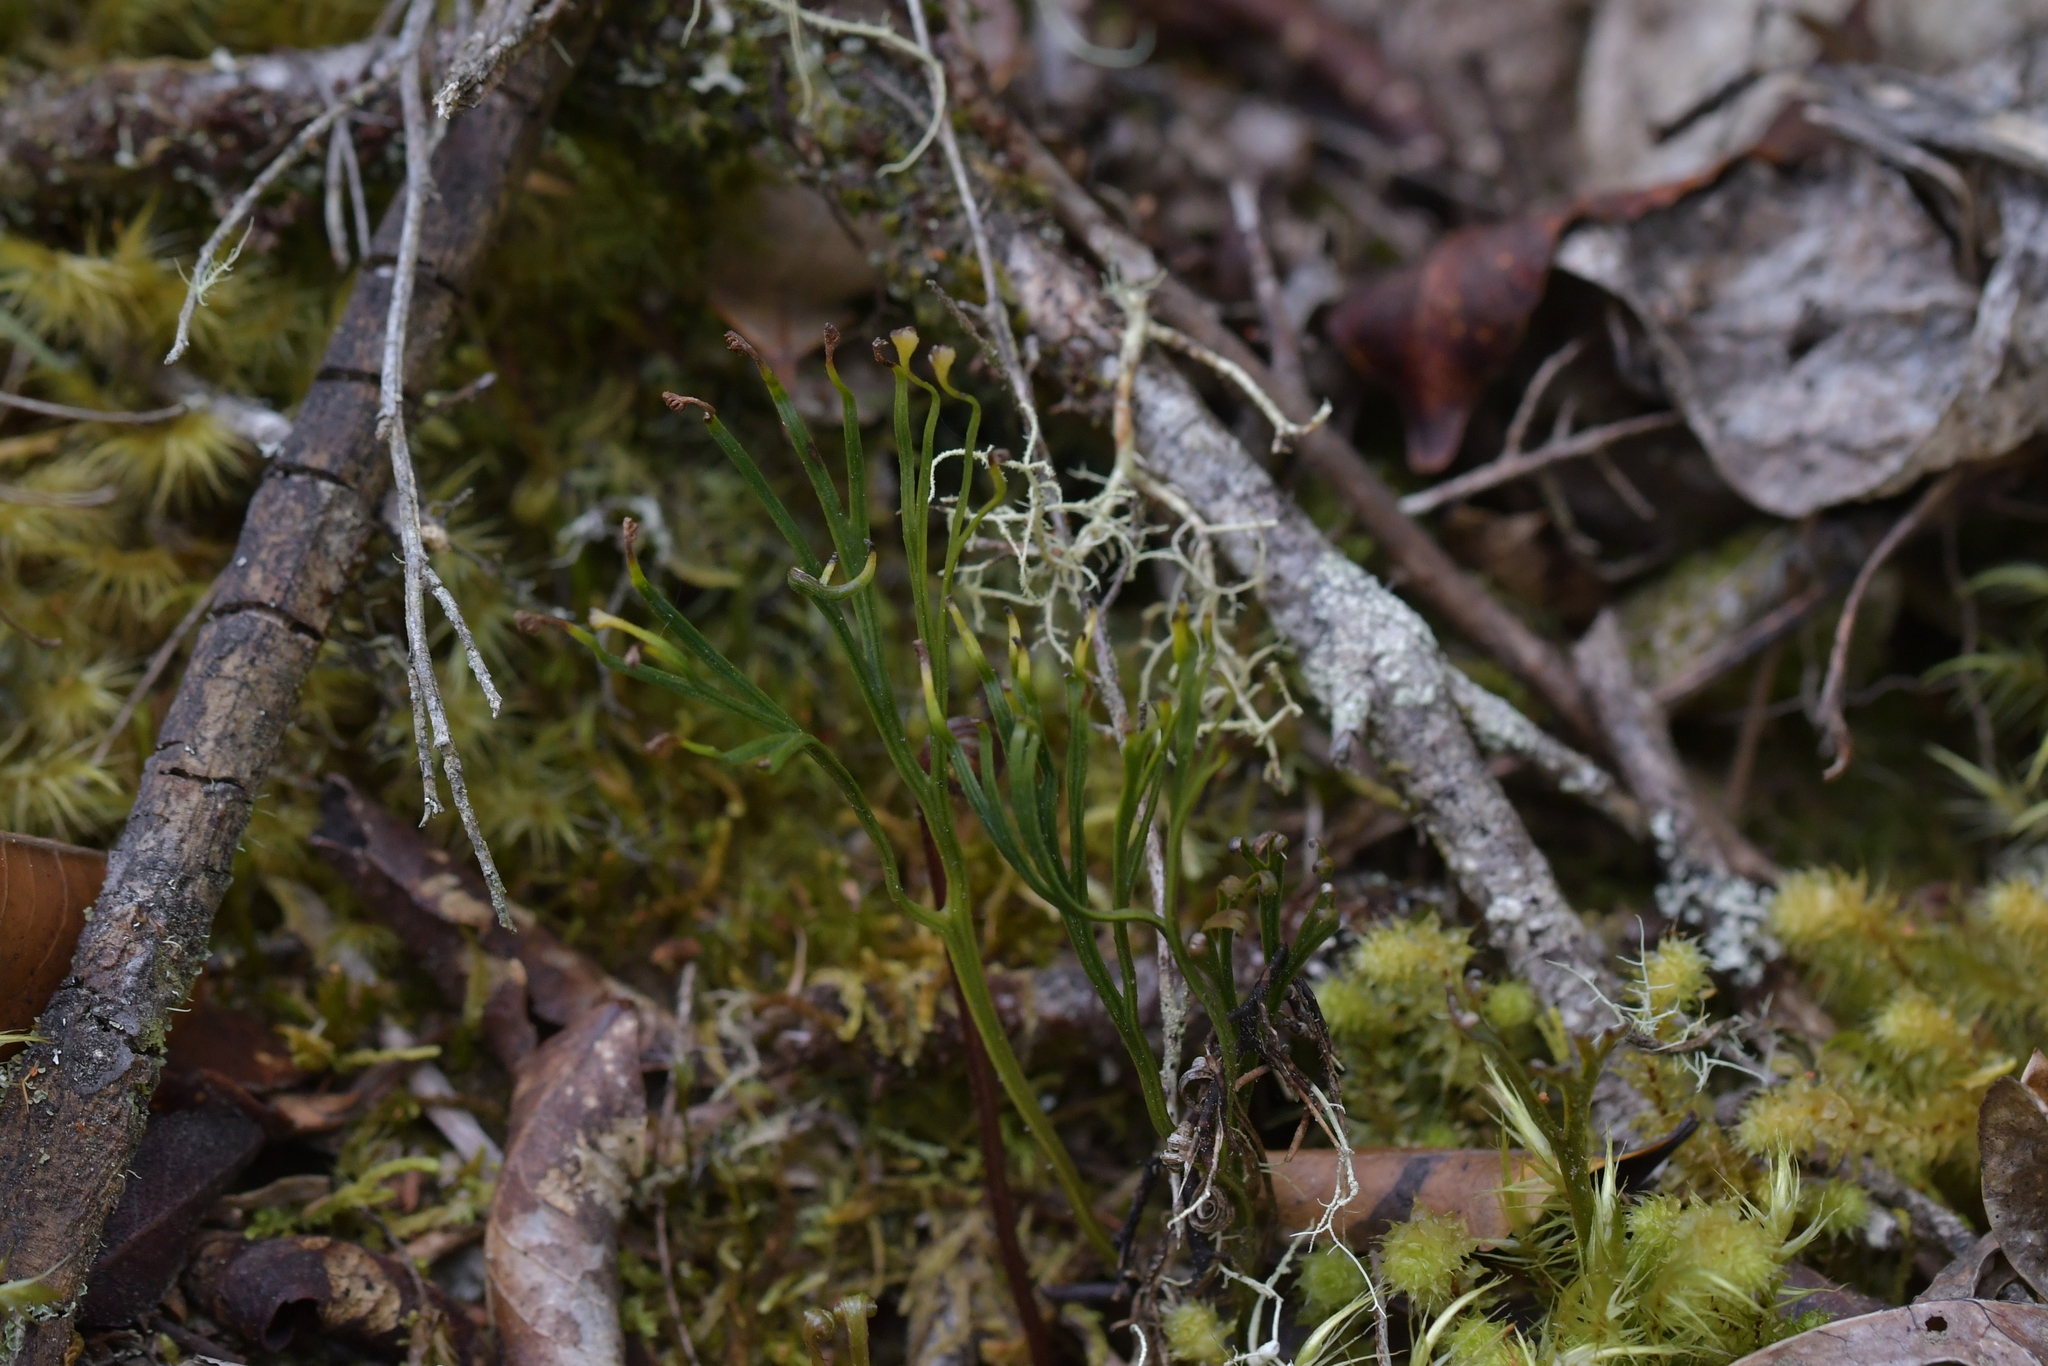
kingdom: Plantae
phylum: Tracheophyta
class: Polypodiopsida
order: Schizaeales
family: Schizaeaceae
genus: Schizaea
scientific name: Schizaea dichotoma
